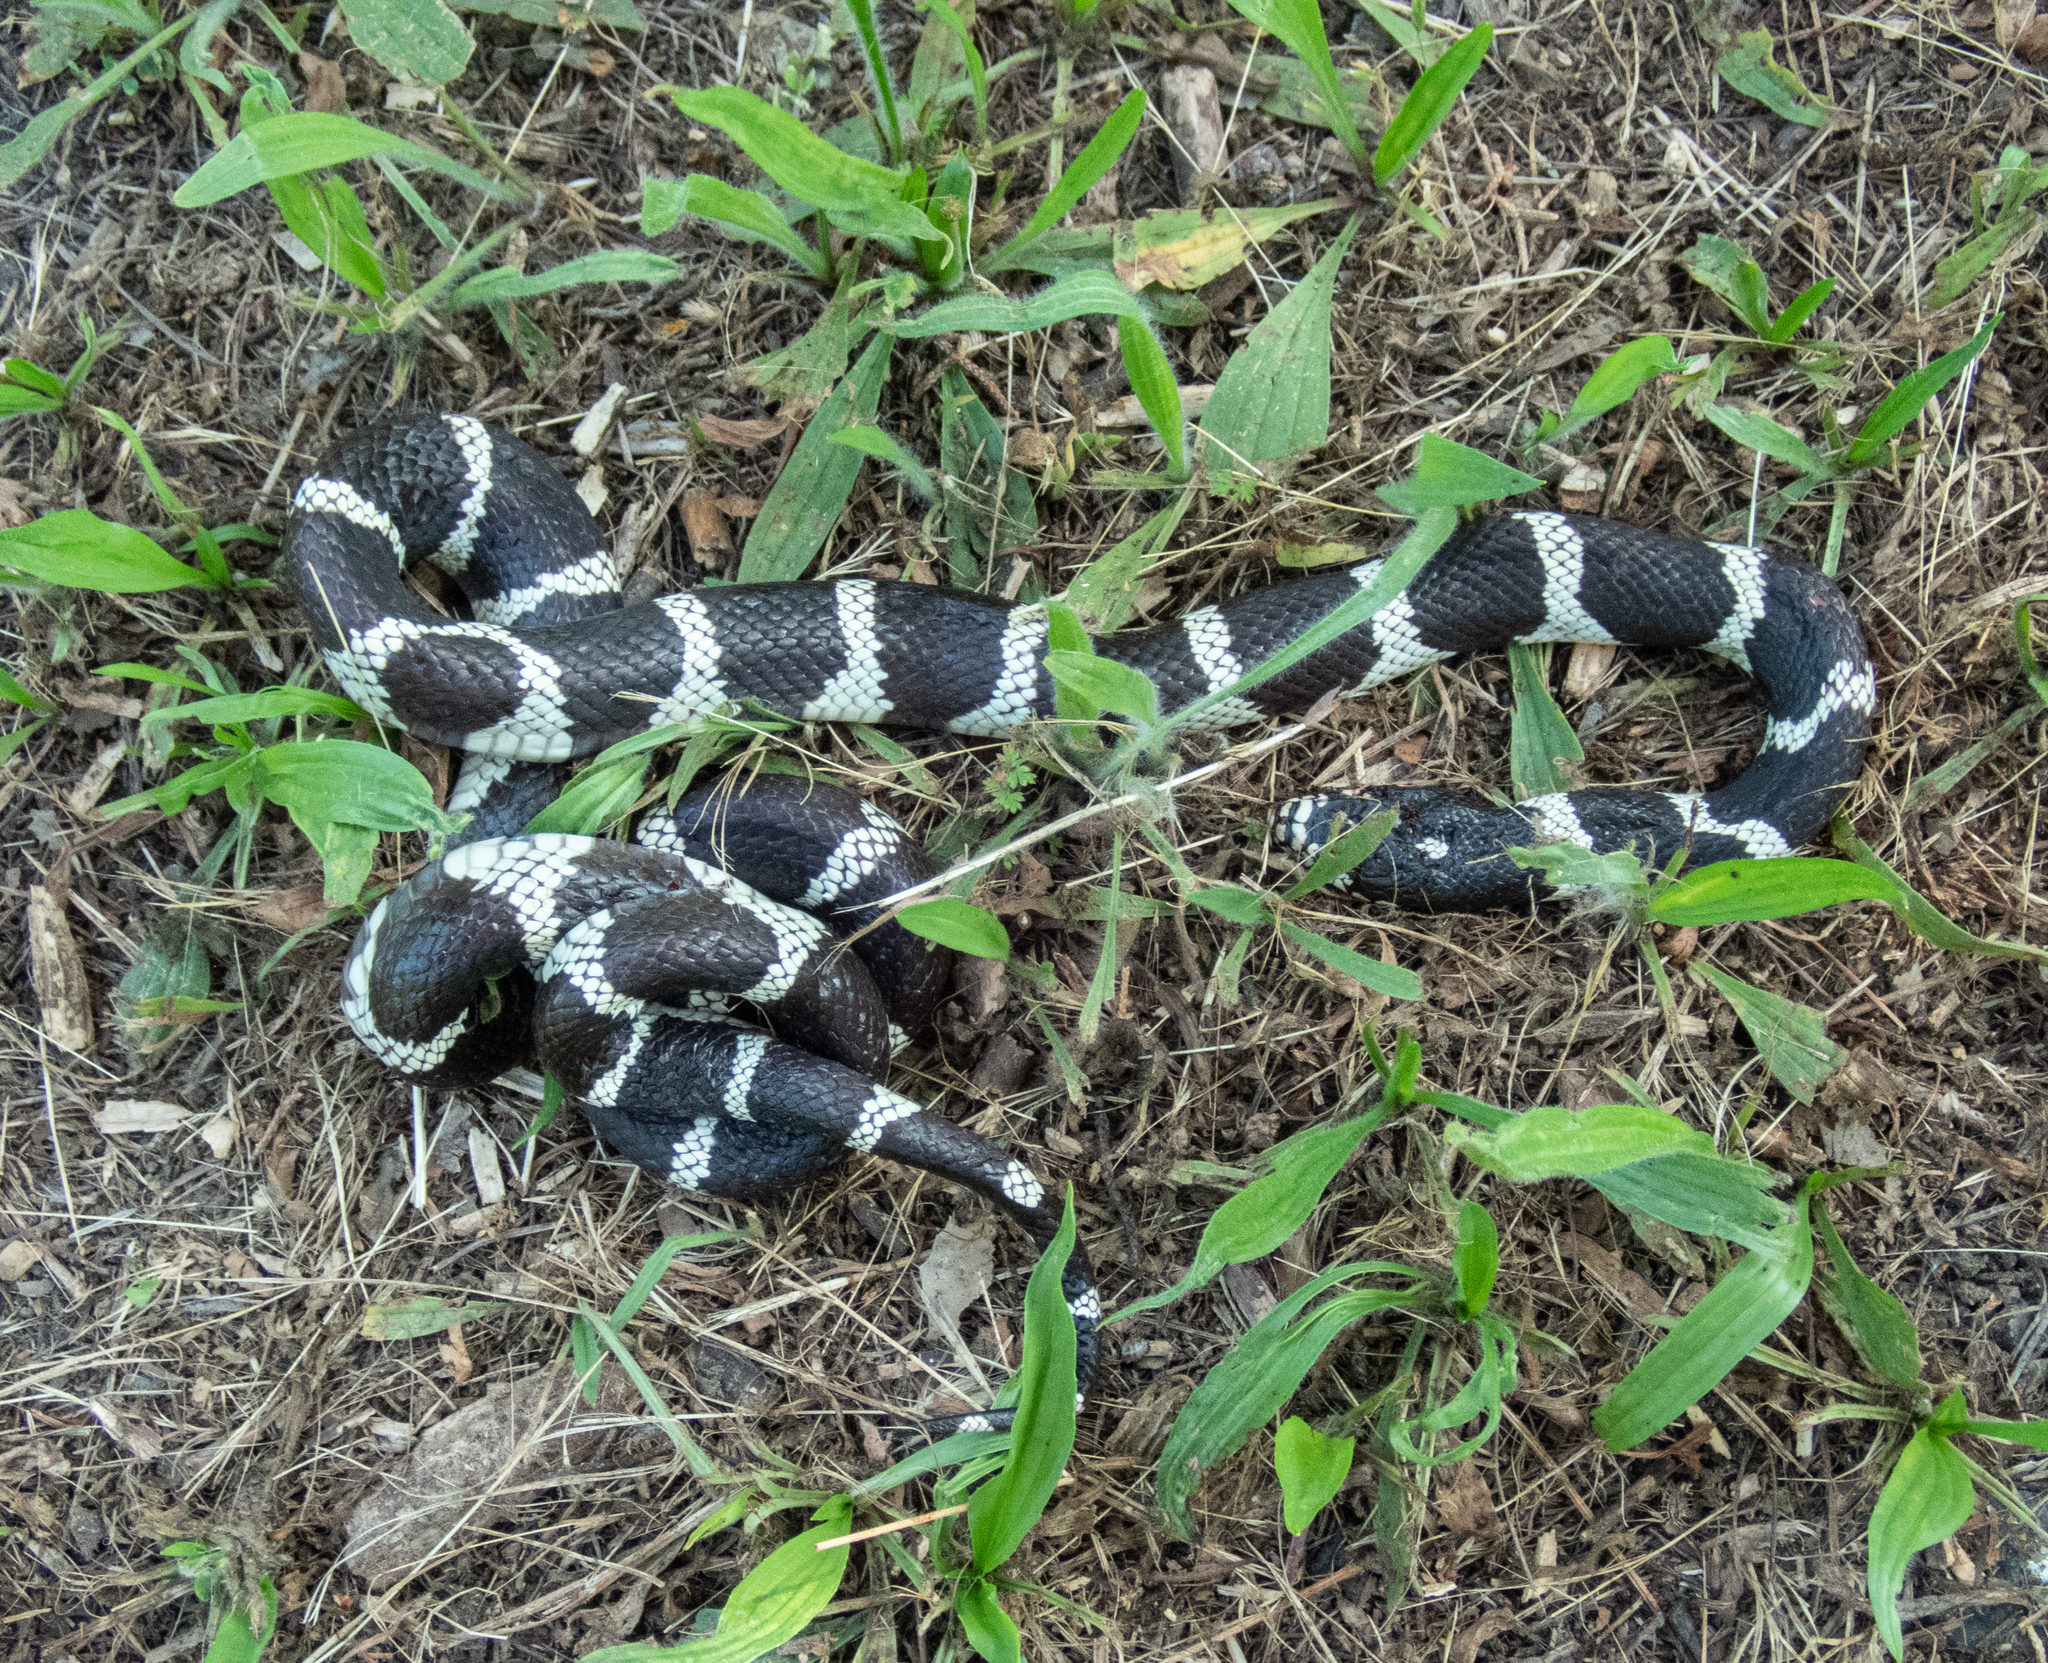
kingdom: Animalia
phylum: Chordata
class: Squamata
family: Colubridae
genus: Lampropeltis
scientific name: Lampropeltis californiae
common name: California kingsnake
